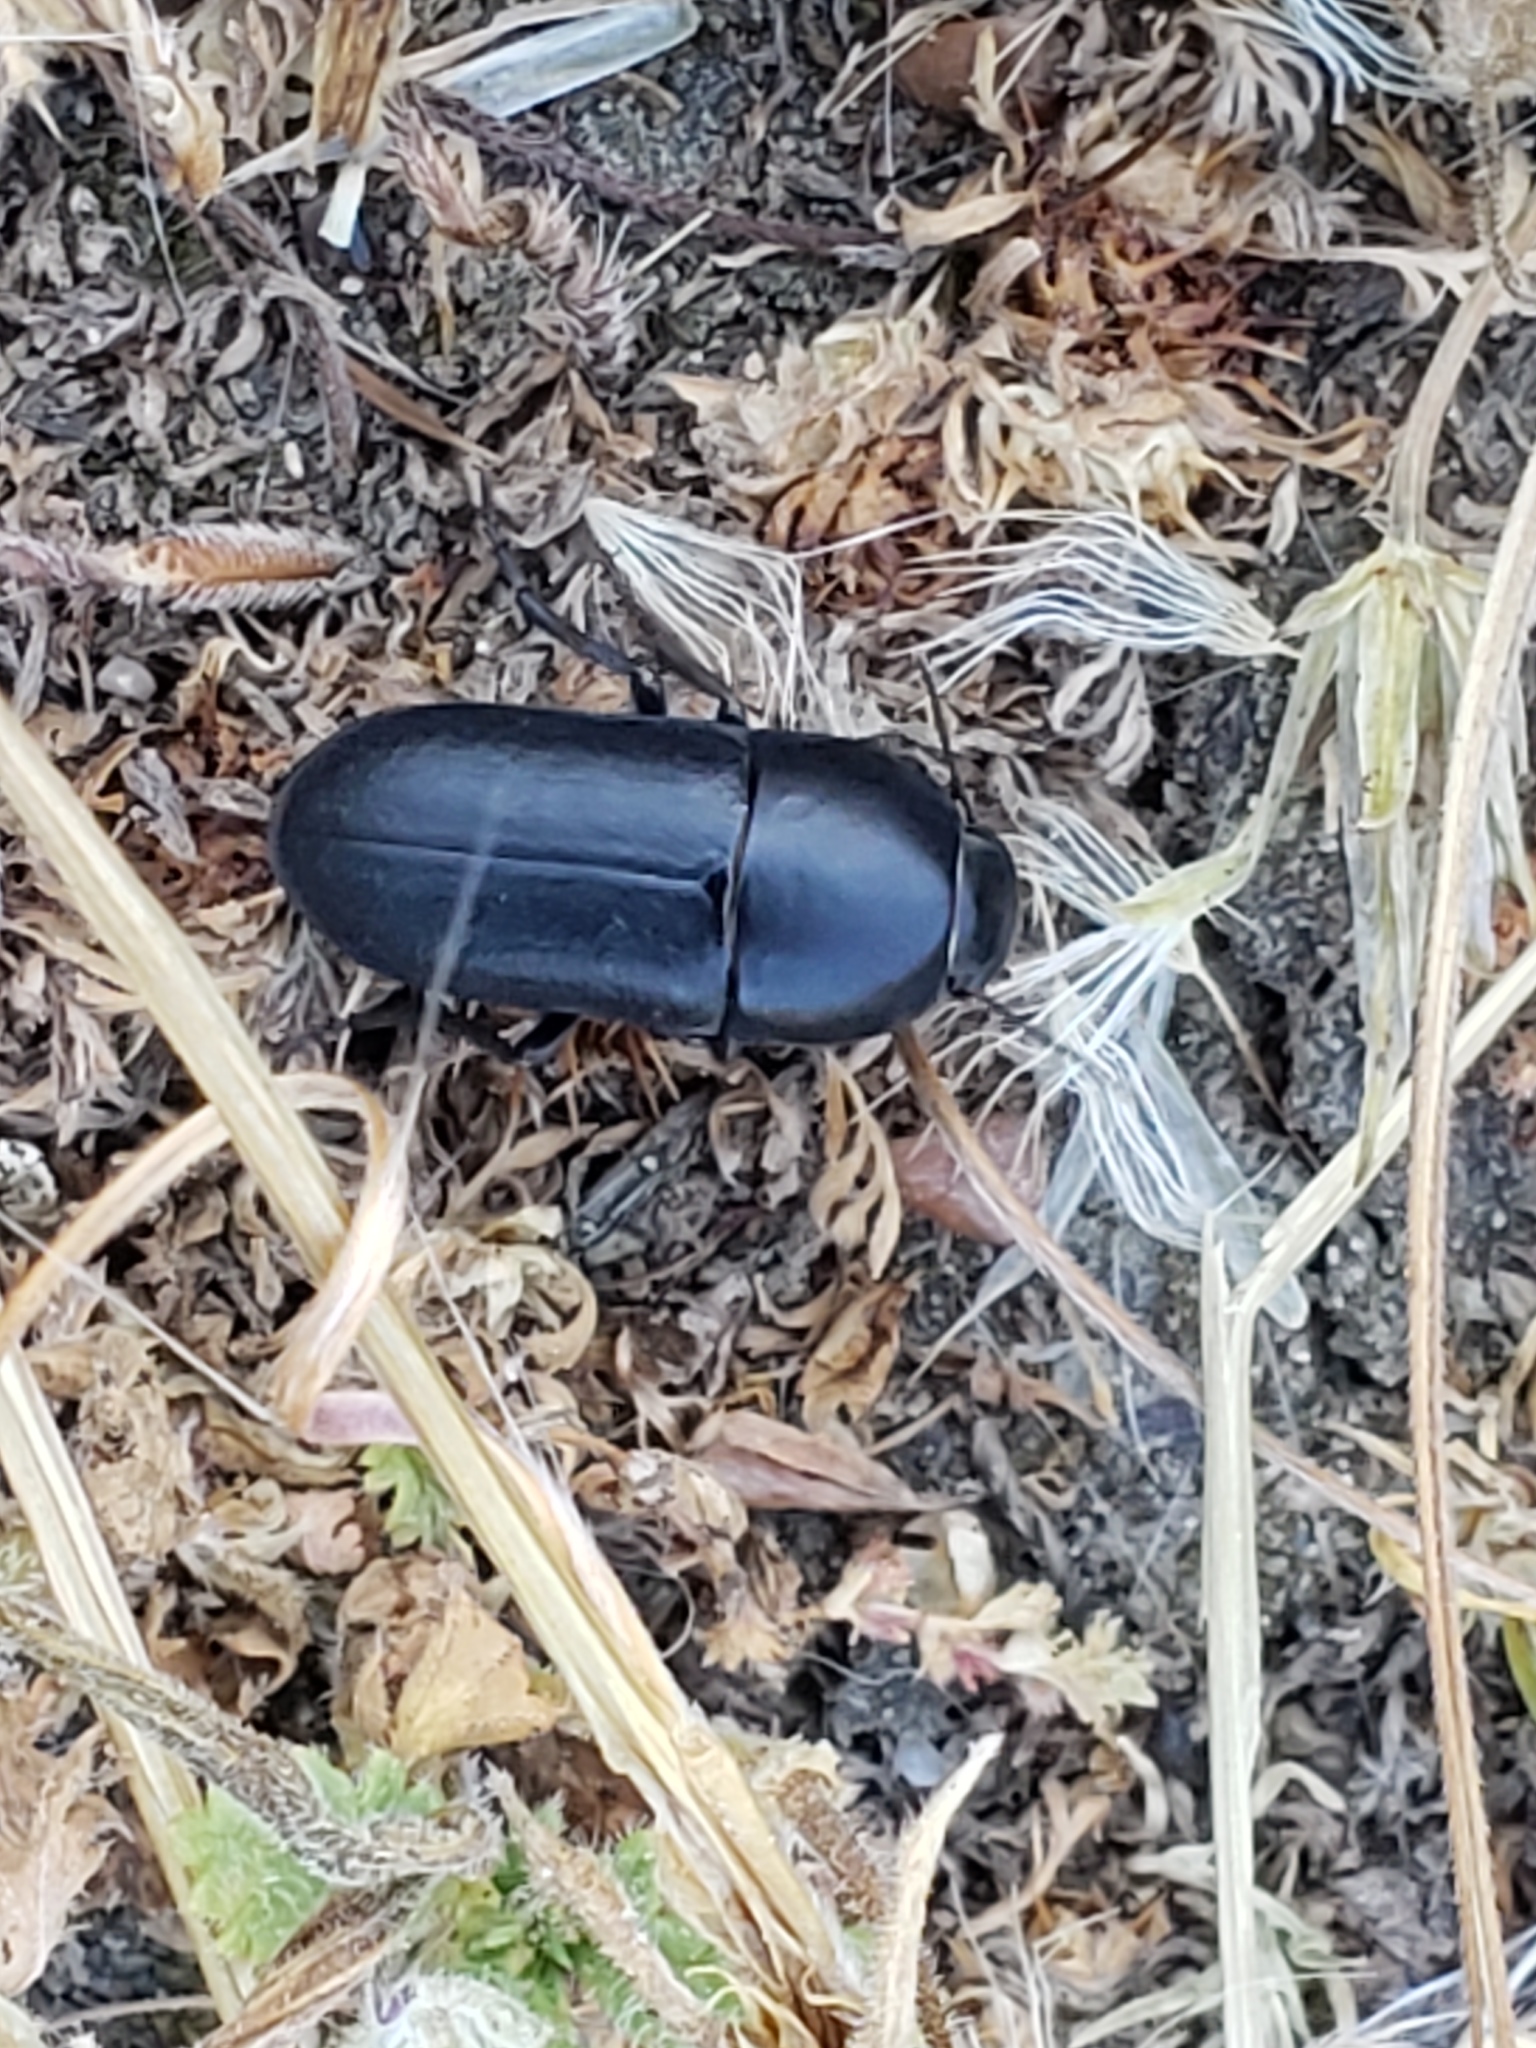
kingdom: Animalia
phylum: Arthropoda
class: Insecta
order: Coleoptera
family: Tenebrionidae
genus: Coniontis
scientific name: Coniontis
